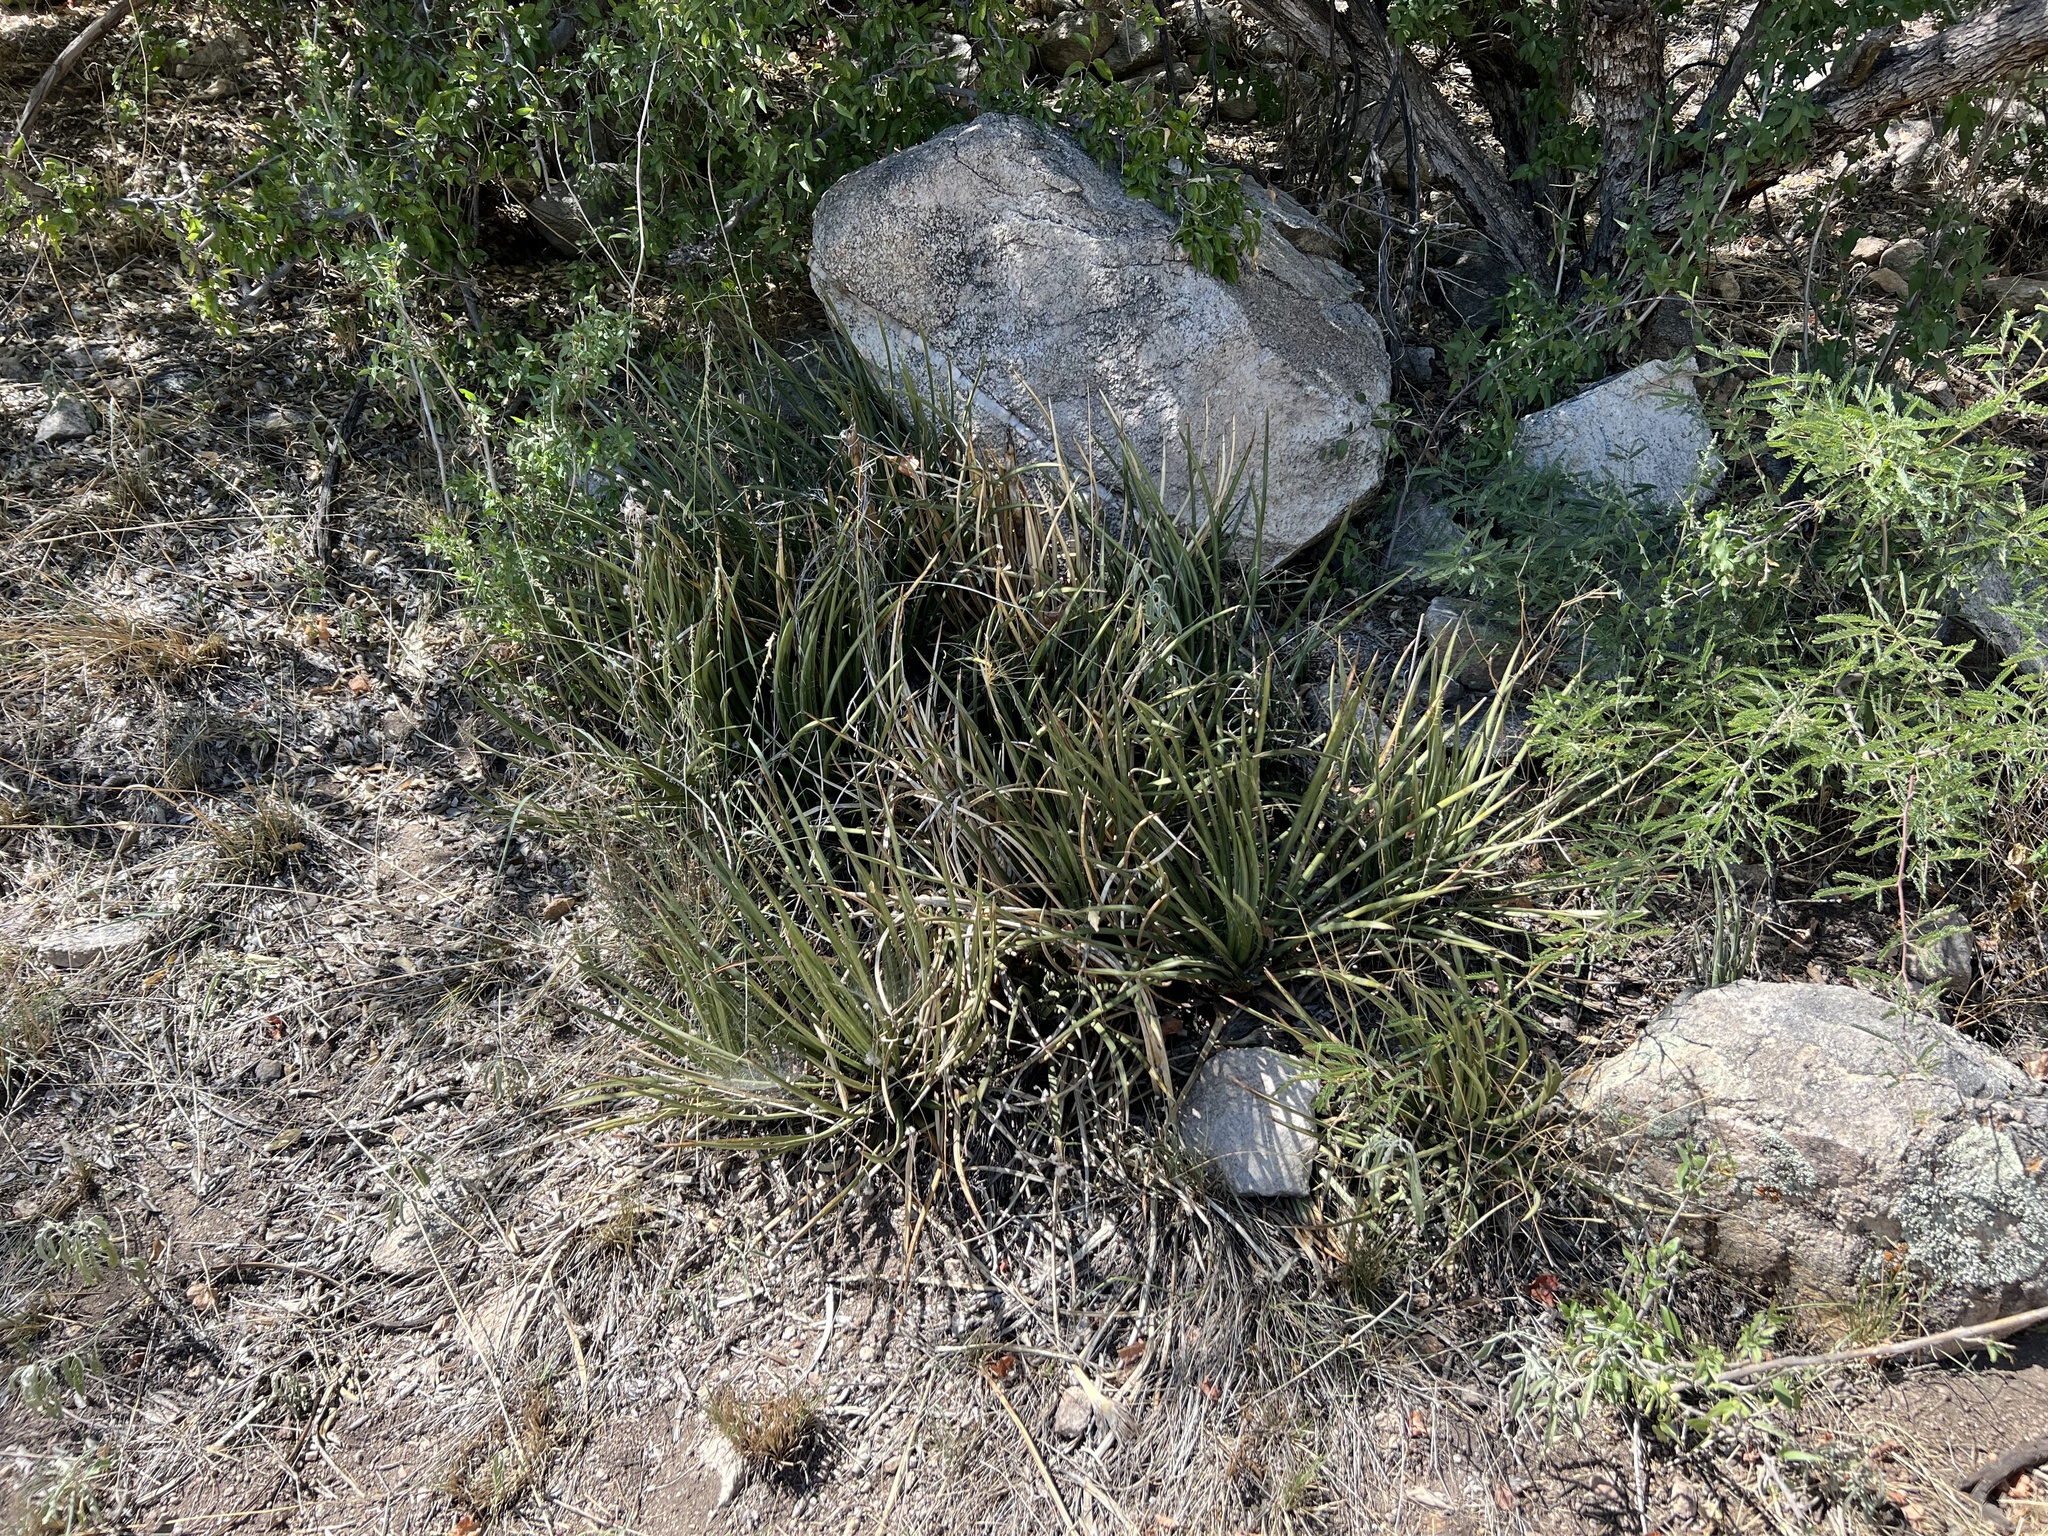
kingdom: Plantae
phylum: Tracheophyta
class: Liliopsida
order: Asparagales
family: Asparagaceae
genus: Agave
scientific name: Agave schottii
